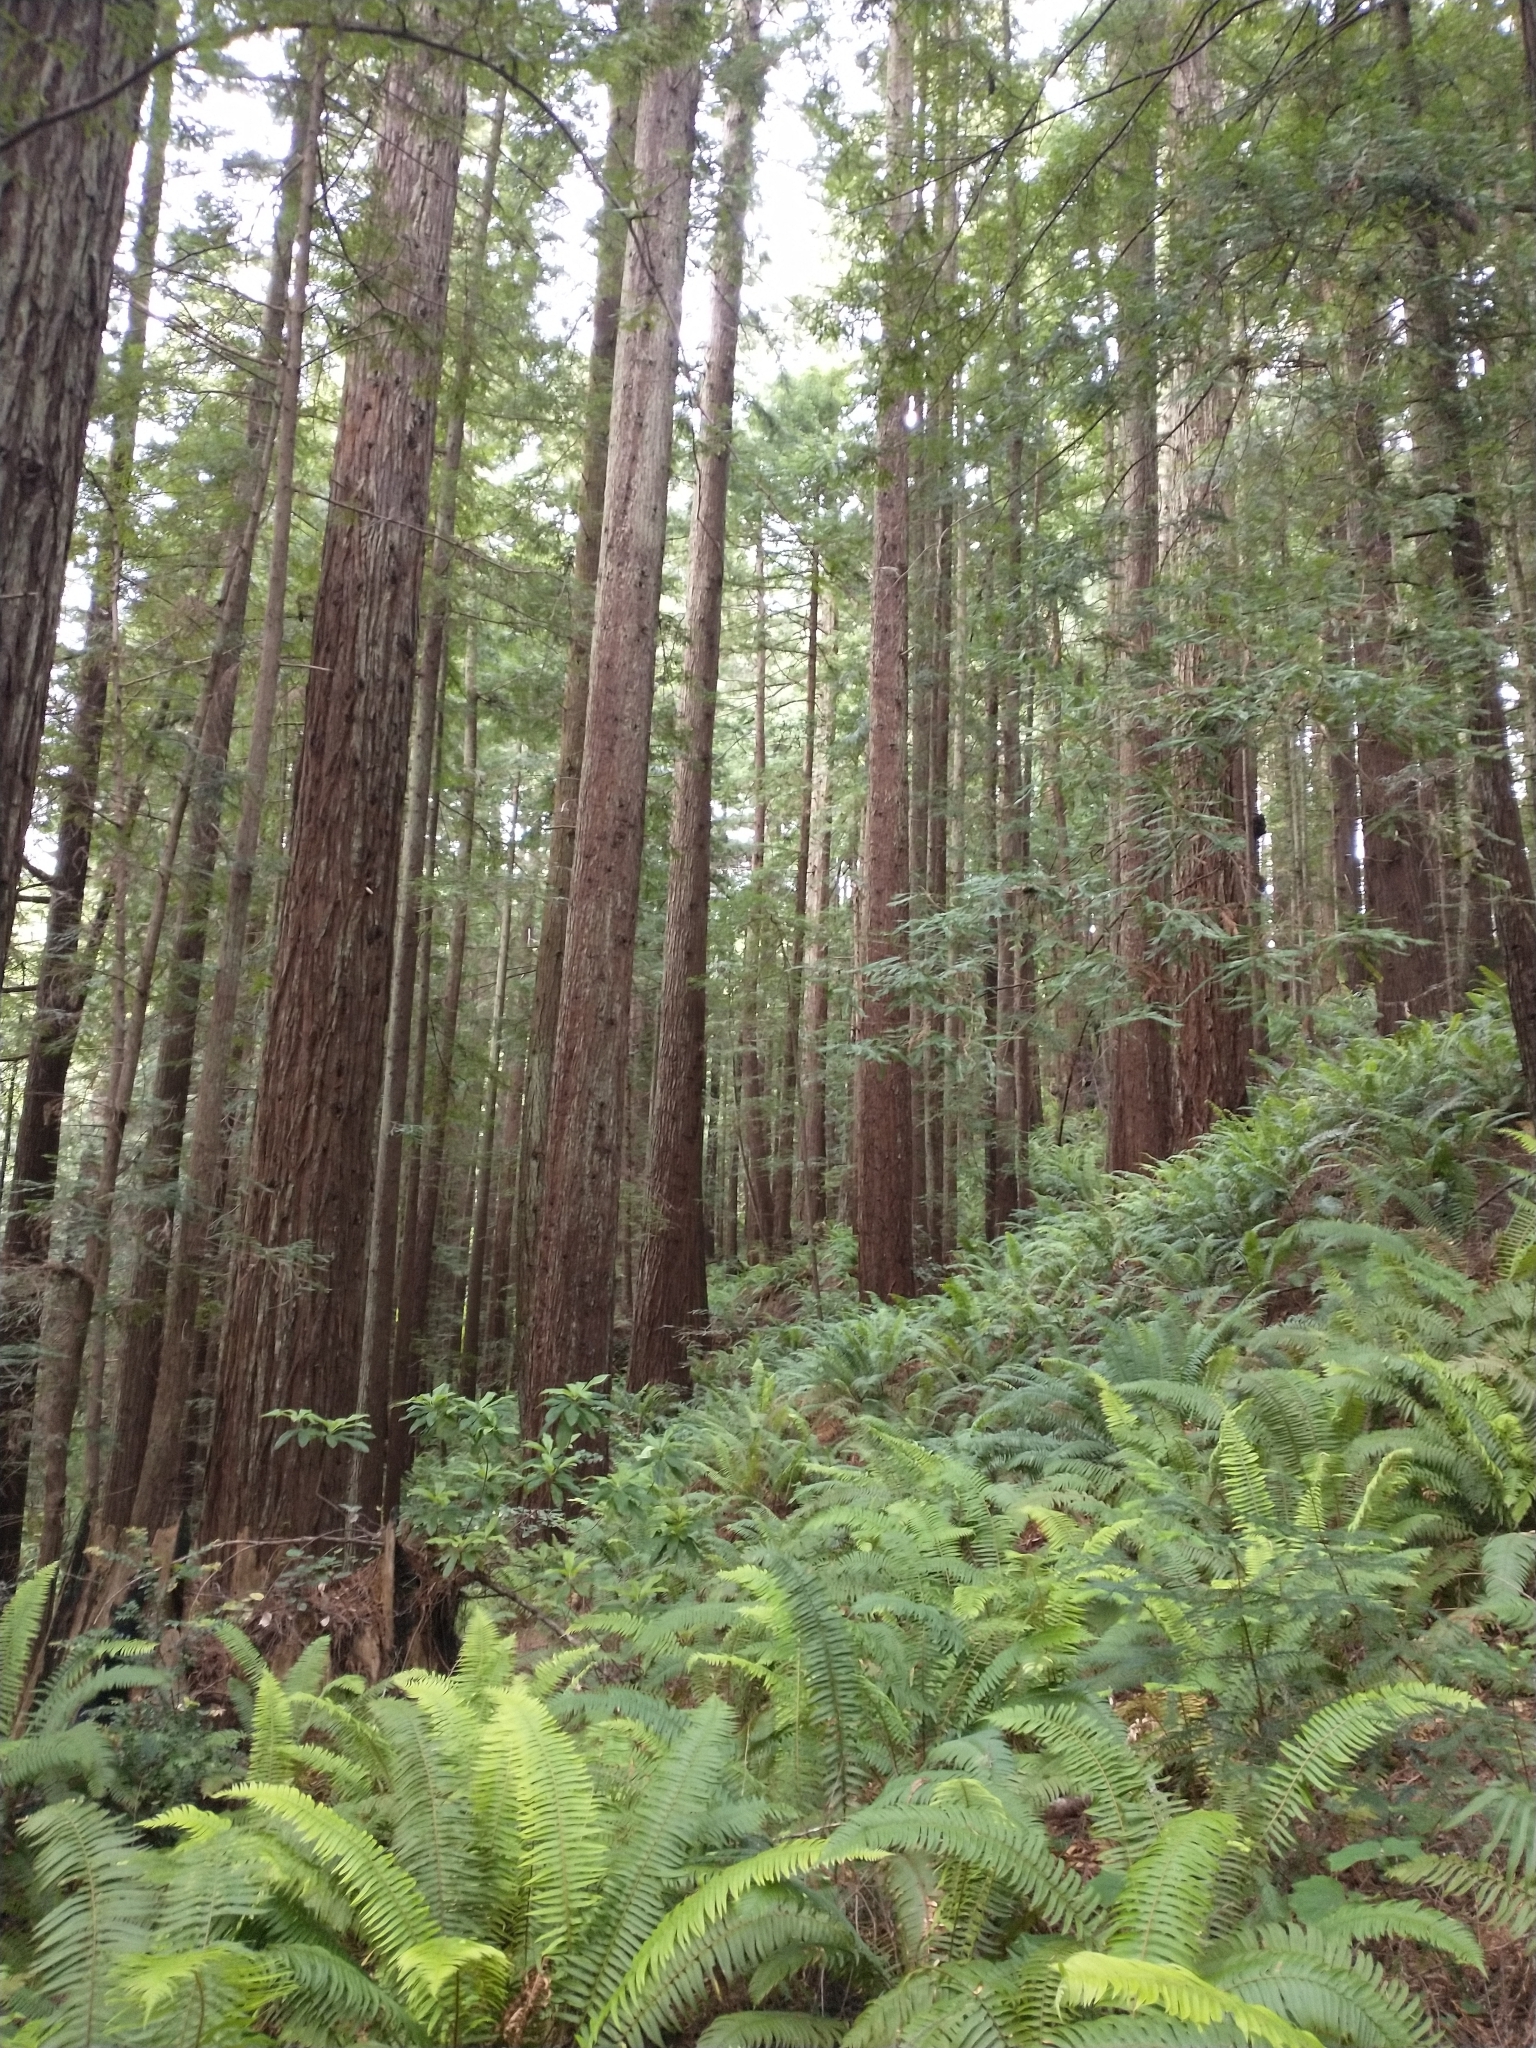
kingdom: Plantae
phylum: Tracheophyta
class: Pinopsida
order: Pinales
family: Cupressaceae
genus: Sequoia
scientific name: Sequoia sempervirens
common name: Coast redwood
